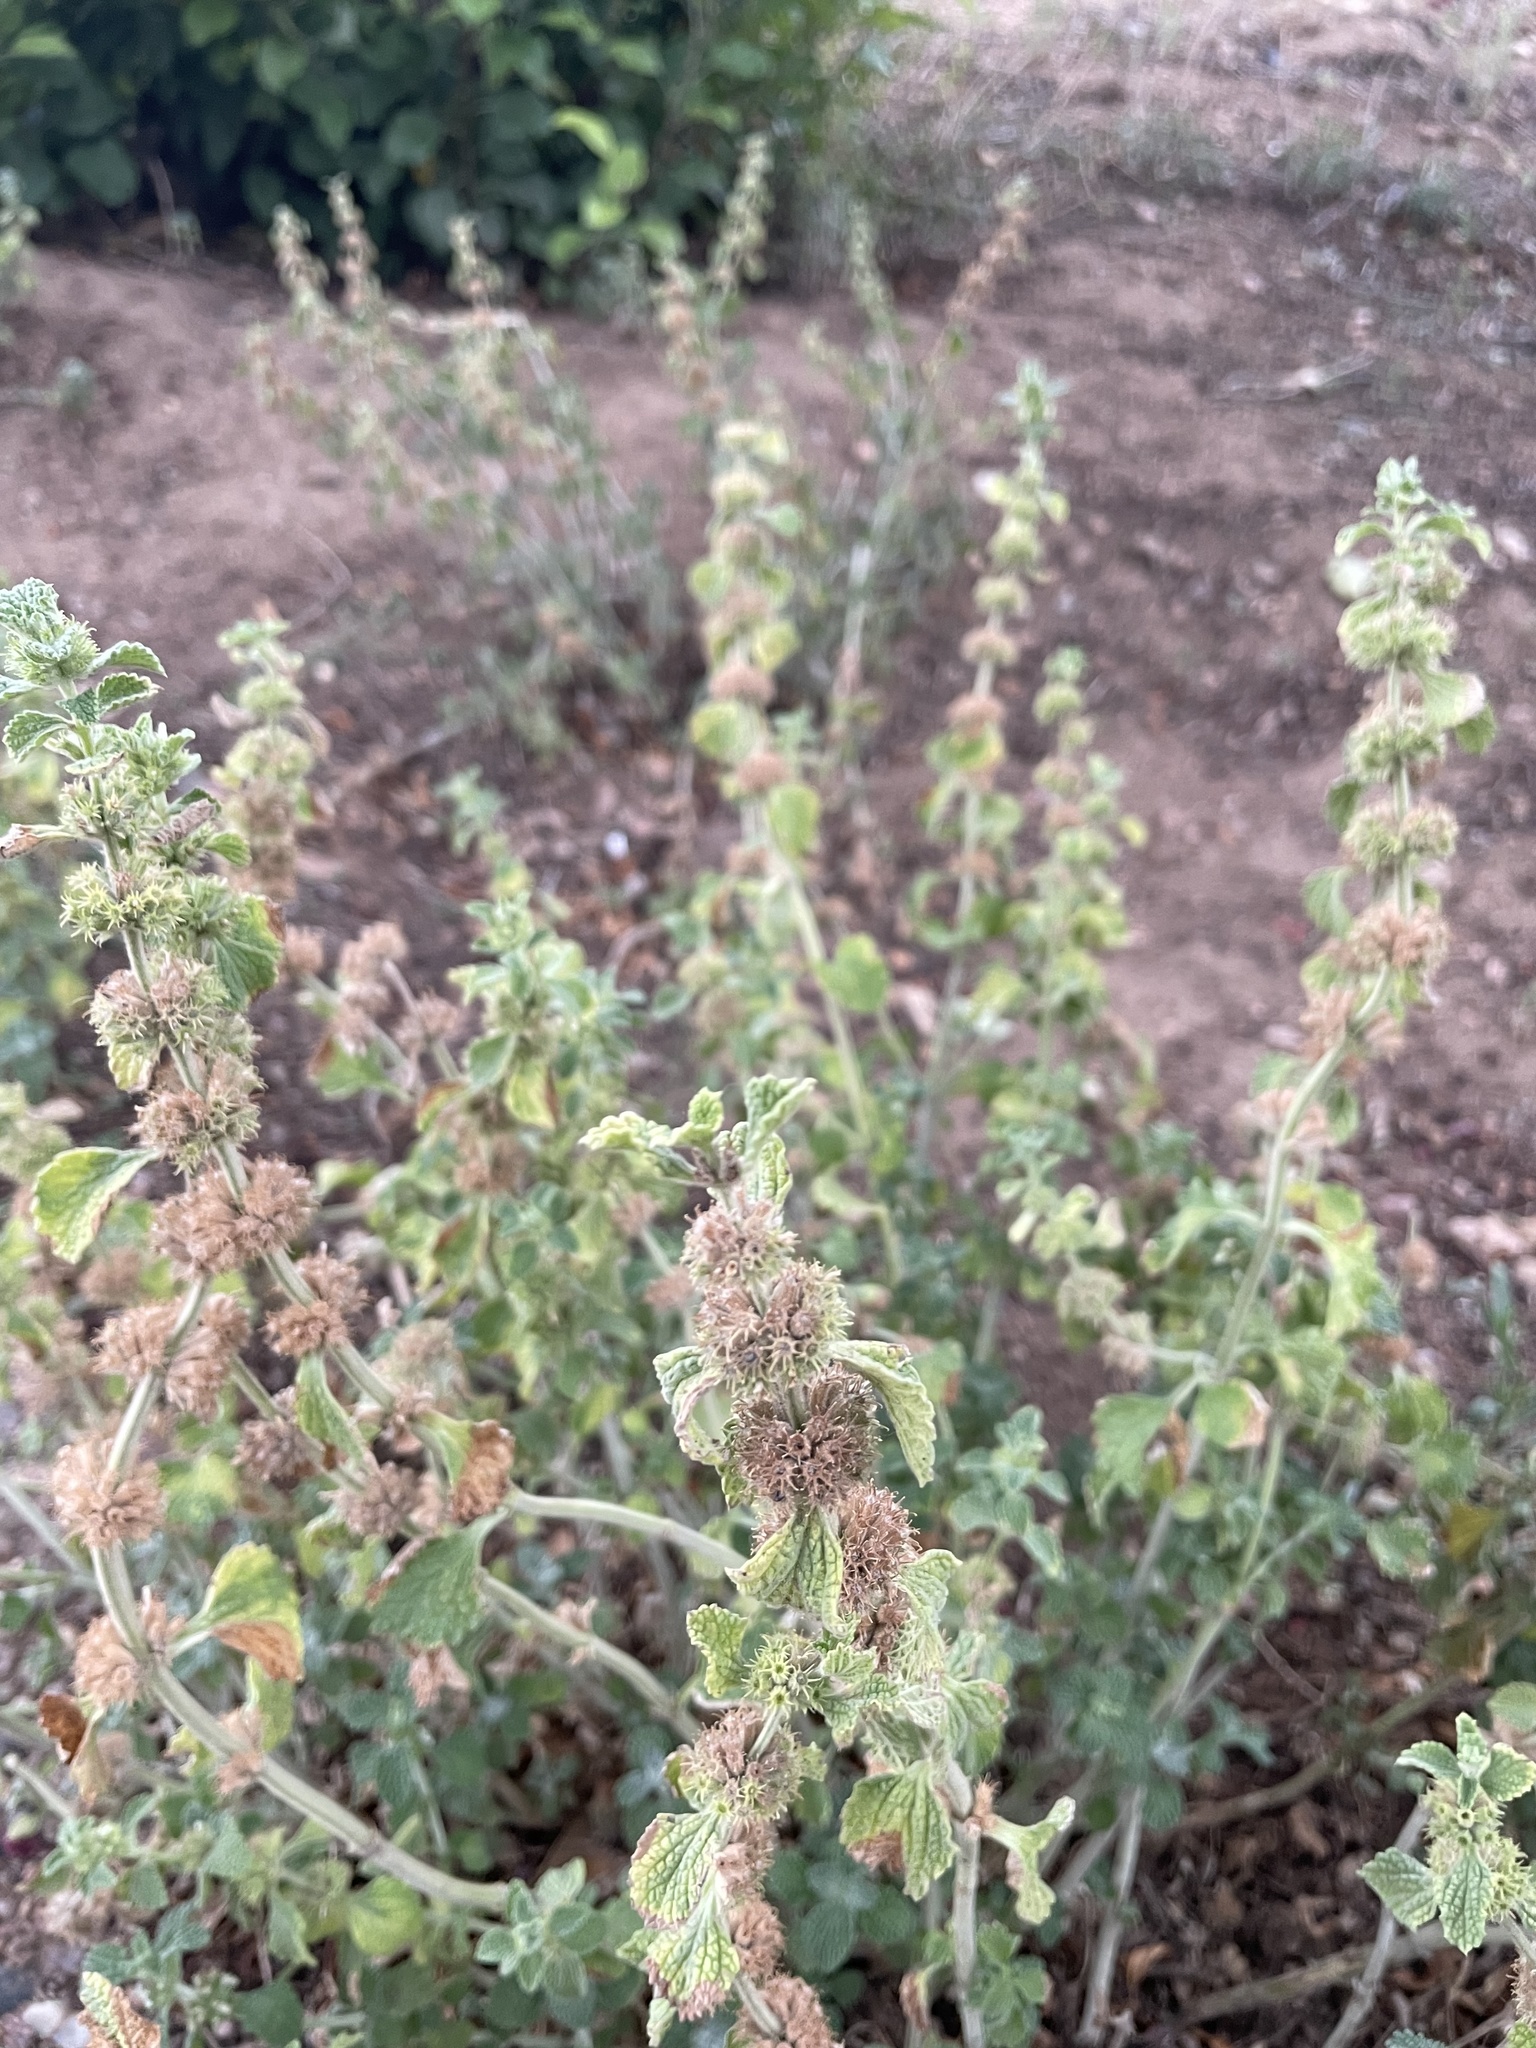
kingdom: Plantae
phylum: Tracheophyta
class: Magnoliopsida
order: Lamiales
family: Lamiaceae
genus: Marrubium
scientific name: Marrubium vulgare
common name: Horehound
